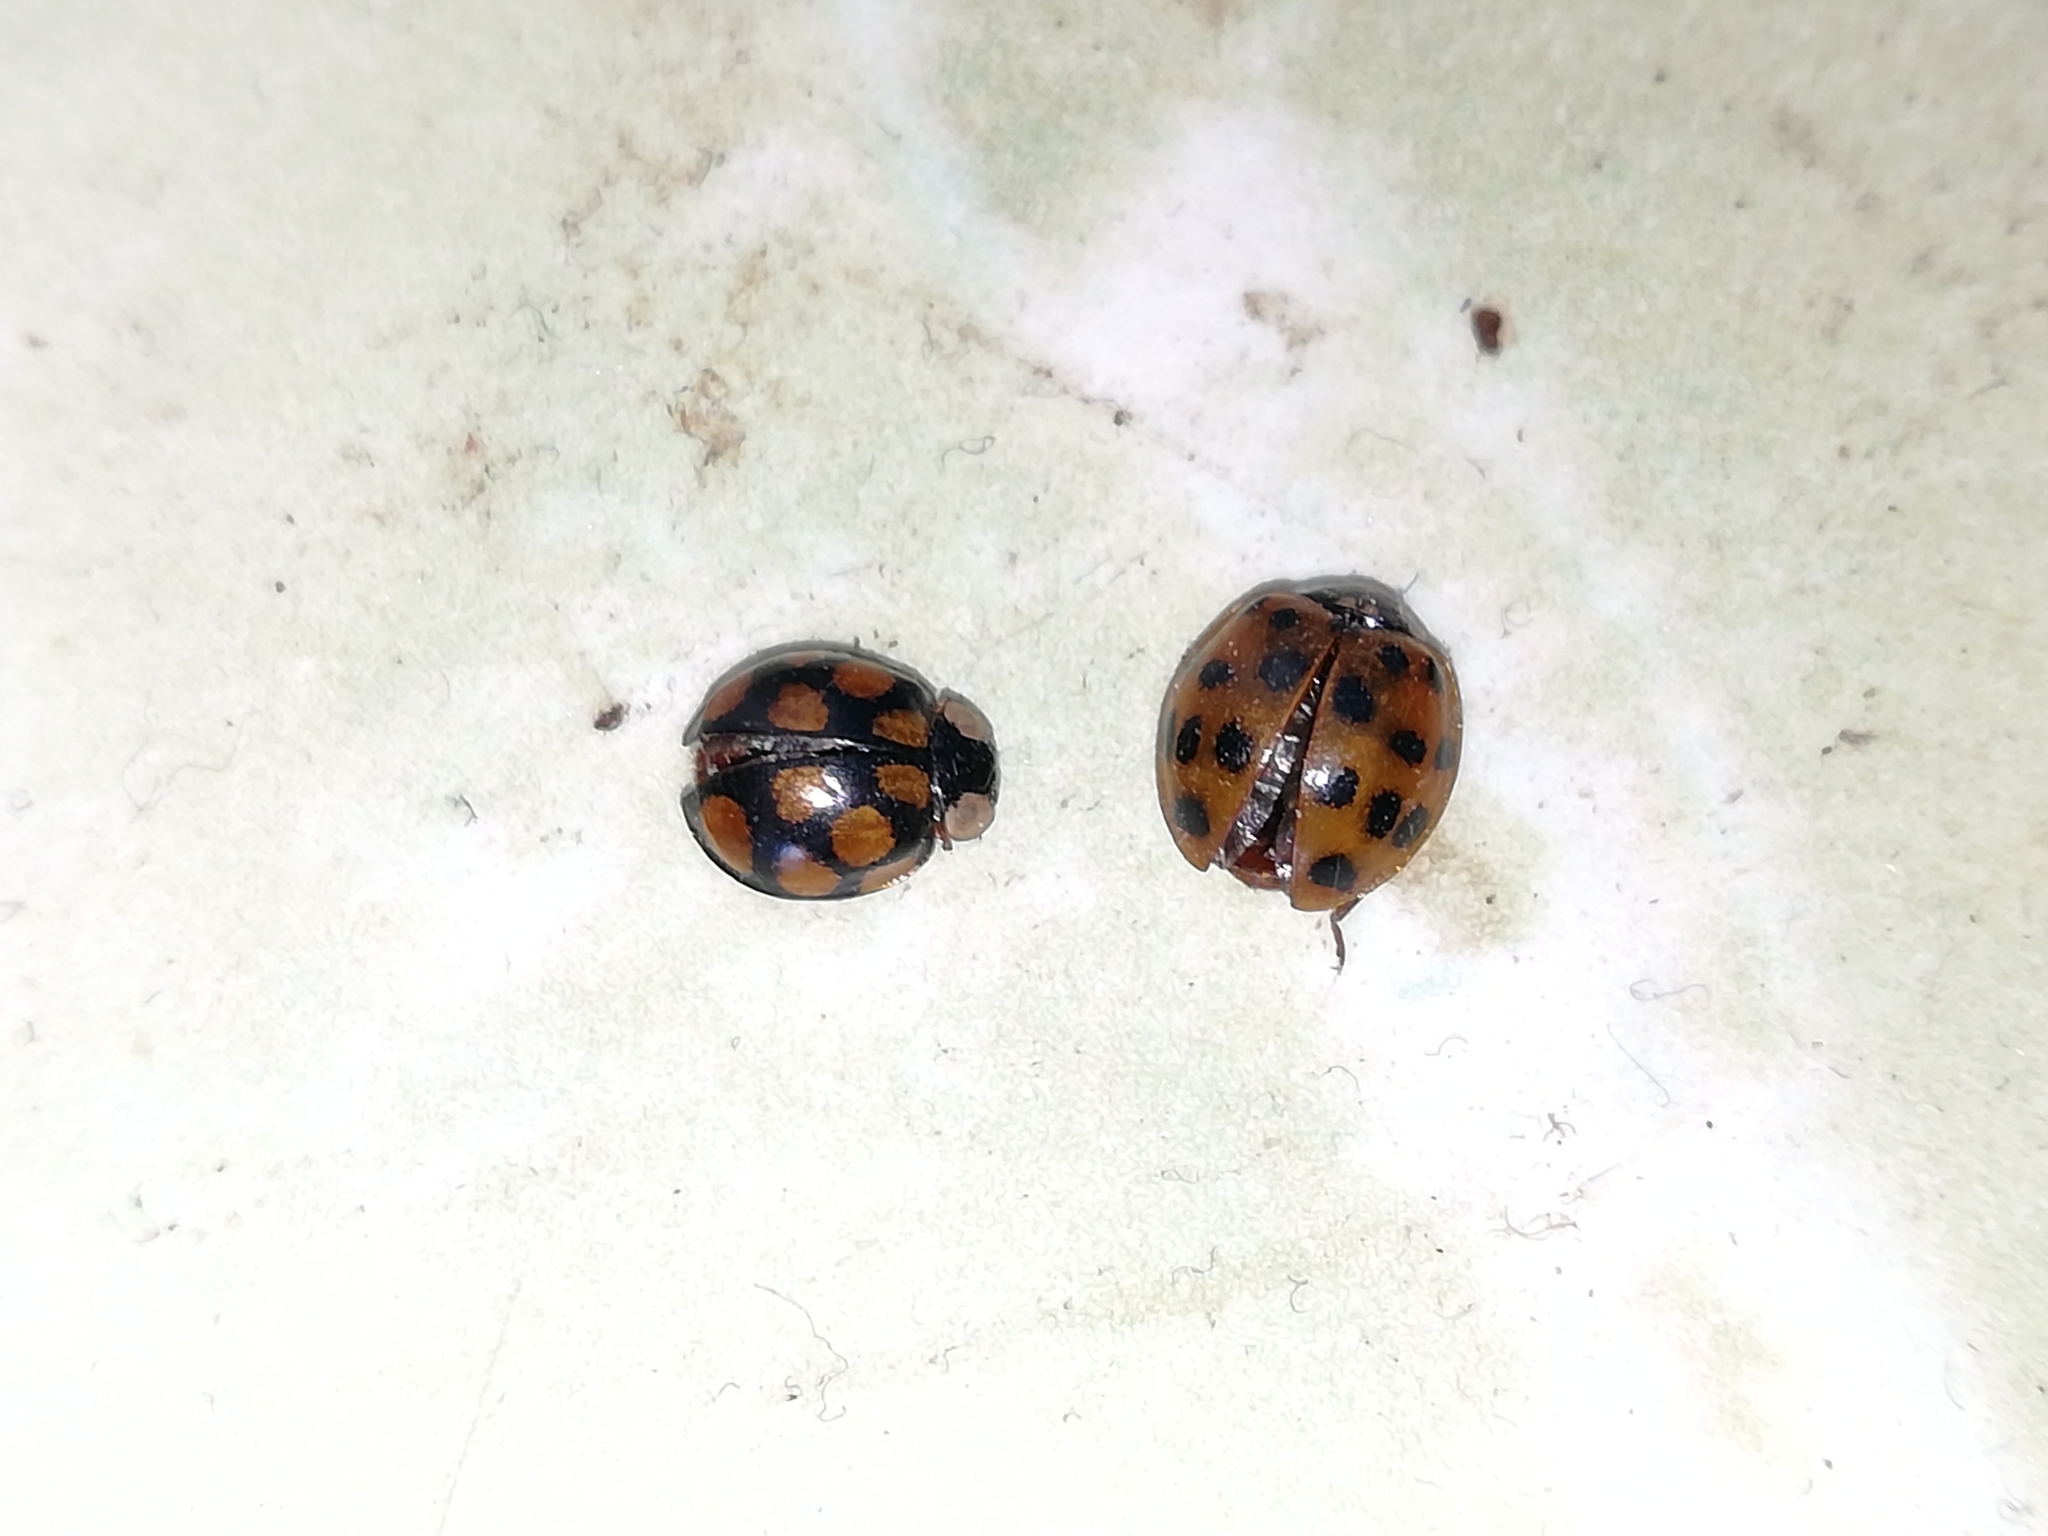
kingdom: Animalia
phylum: Arthropoda
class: Insecta
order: Coleoptera
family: Coccinellidae
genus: Harmonia
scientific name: Harmonia axyridis
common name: Harlequin ladybird
